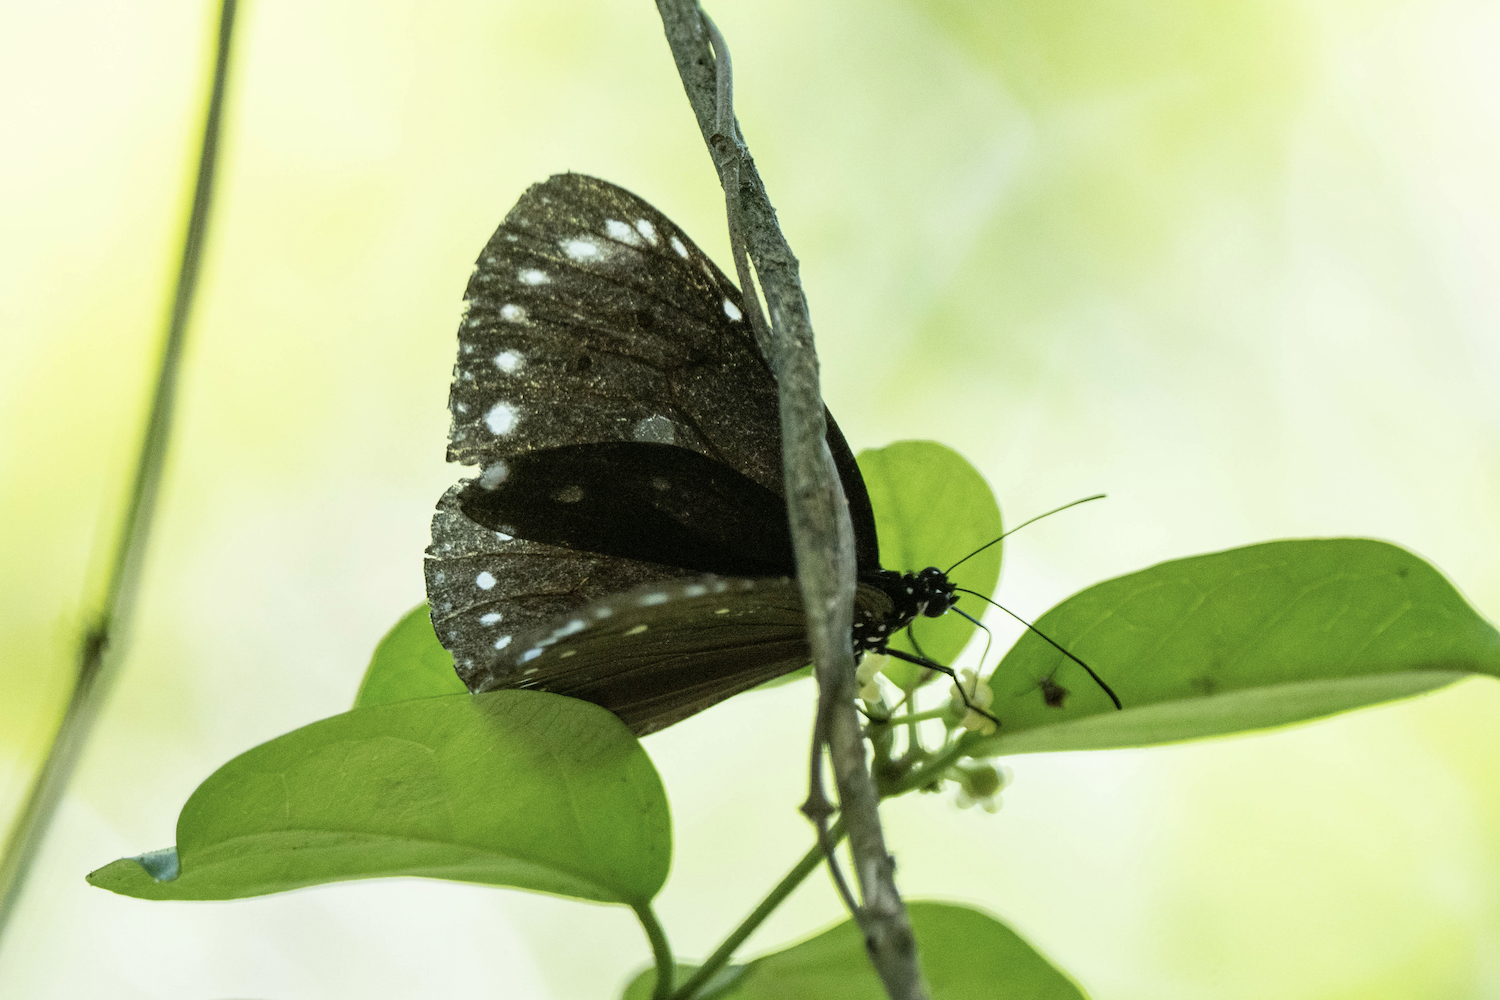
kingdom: Animalia
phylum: Arthropoda
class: Insecta
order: Lepidoptera
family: Nymphalidae
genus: Euploea
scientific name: Euploea tulliolus
